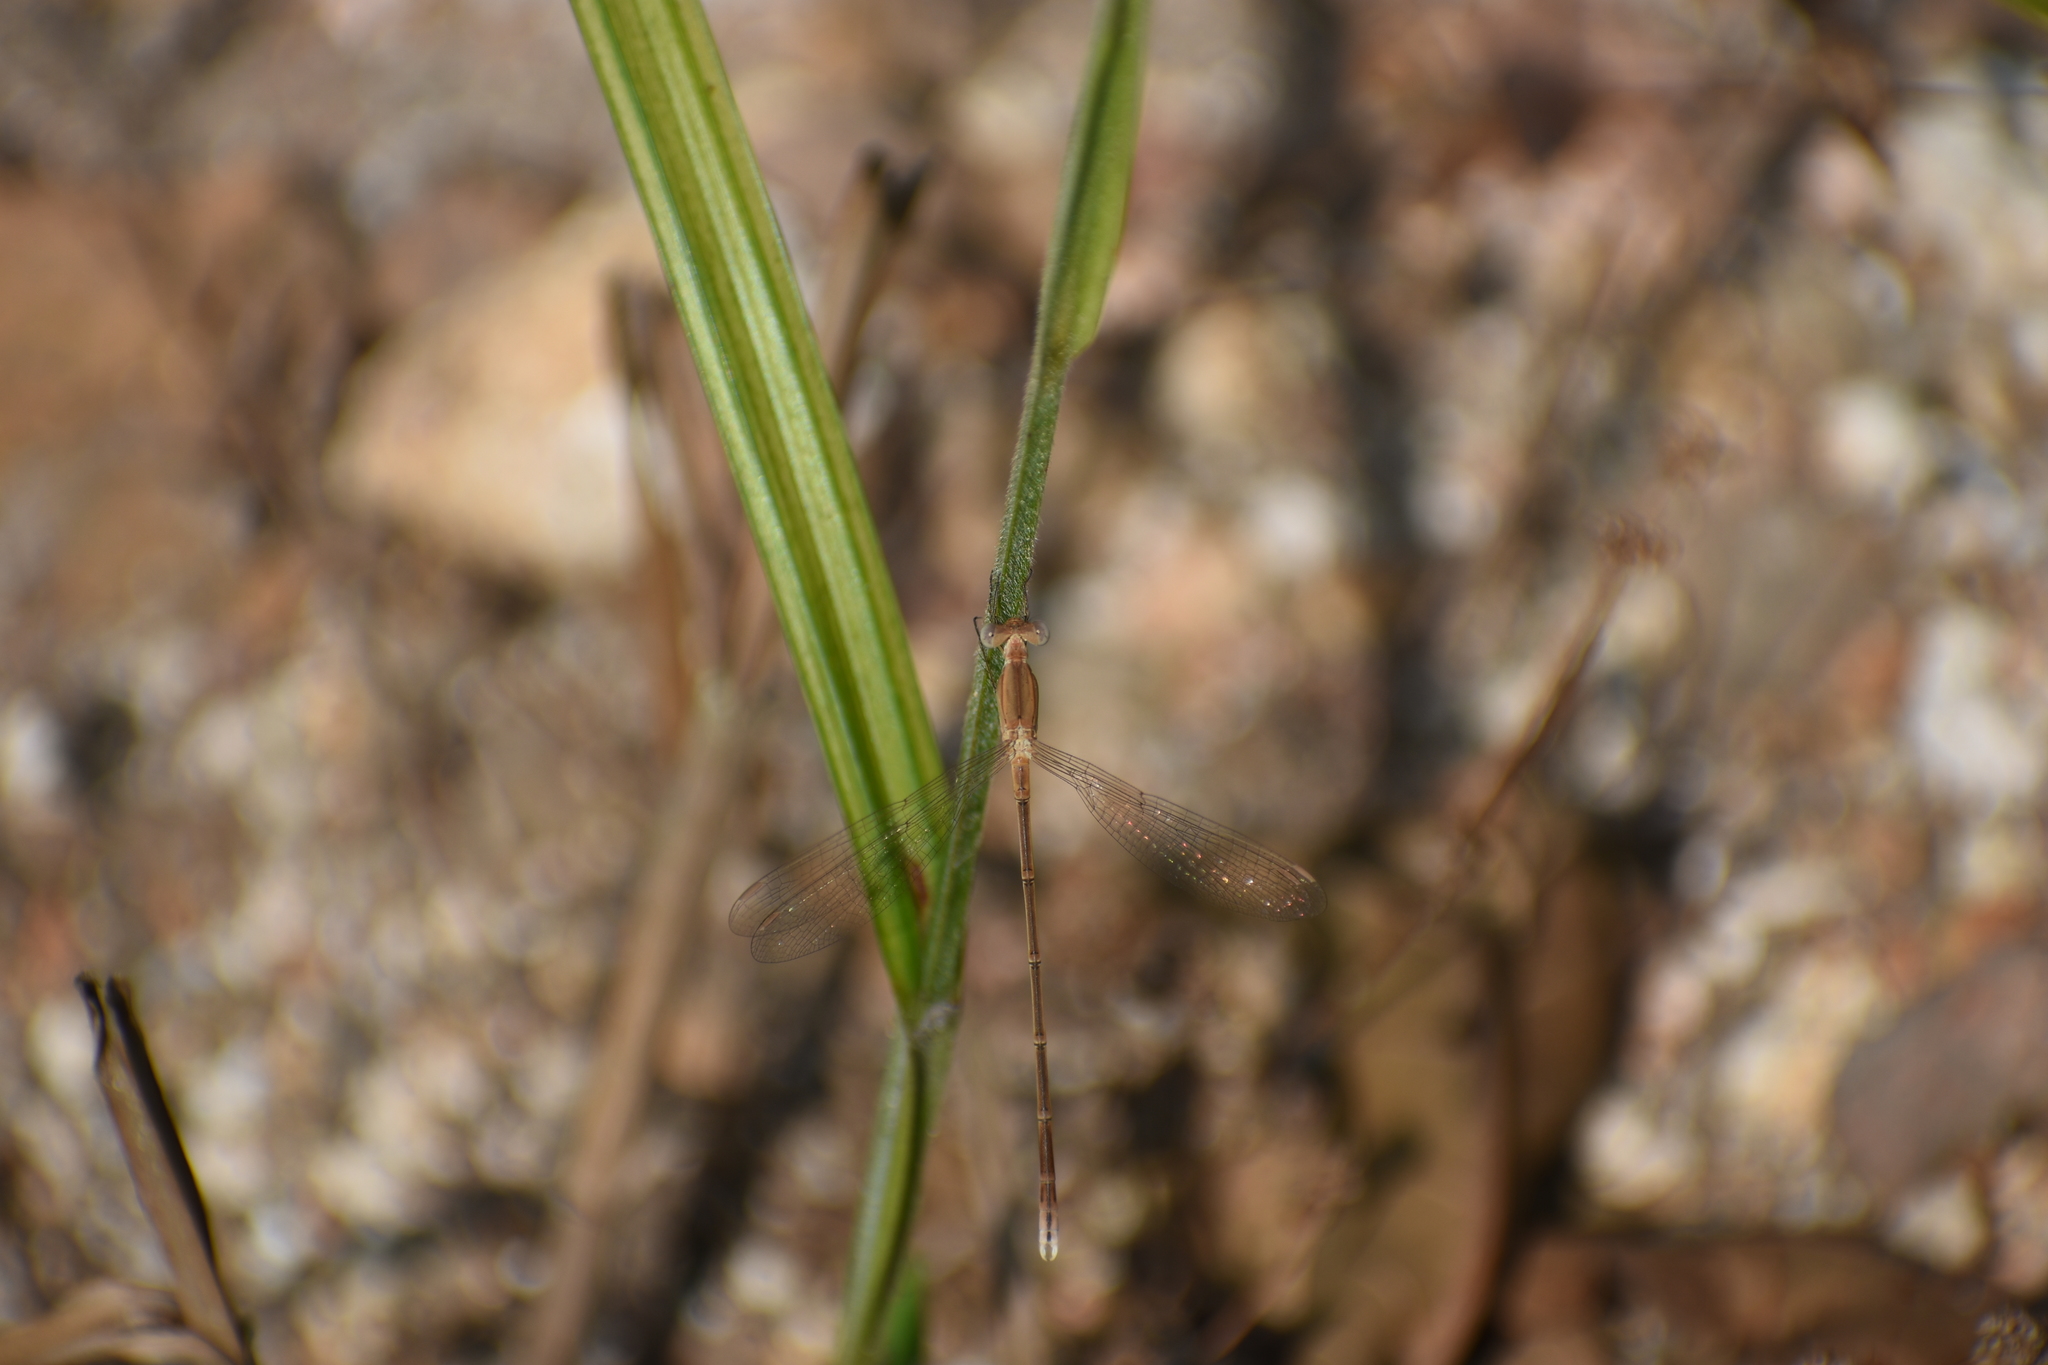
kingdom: Animalia
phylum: Arthropoda
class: Insecta
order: Odonata
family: Lestidae
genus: Lestes
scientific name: Lestes concinnus
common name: Dusky spreadwing
